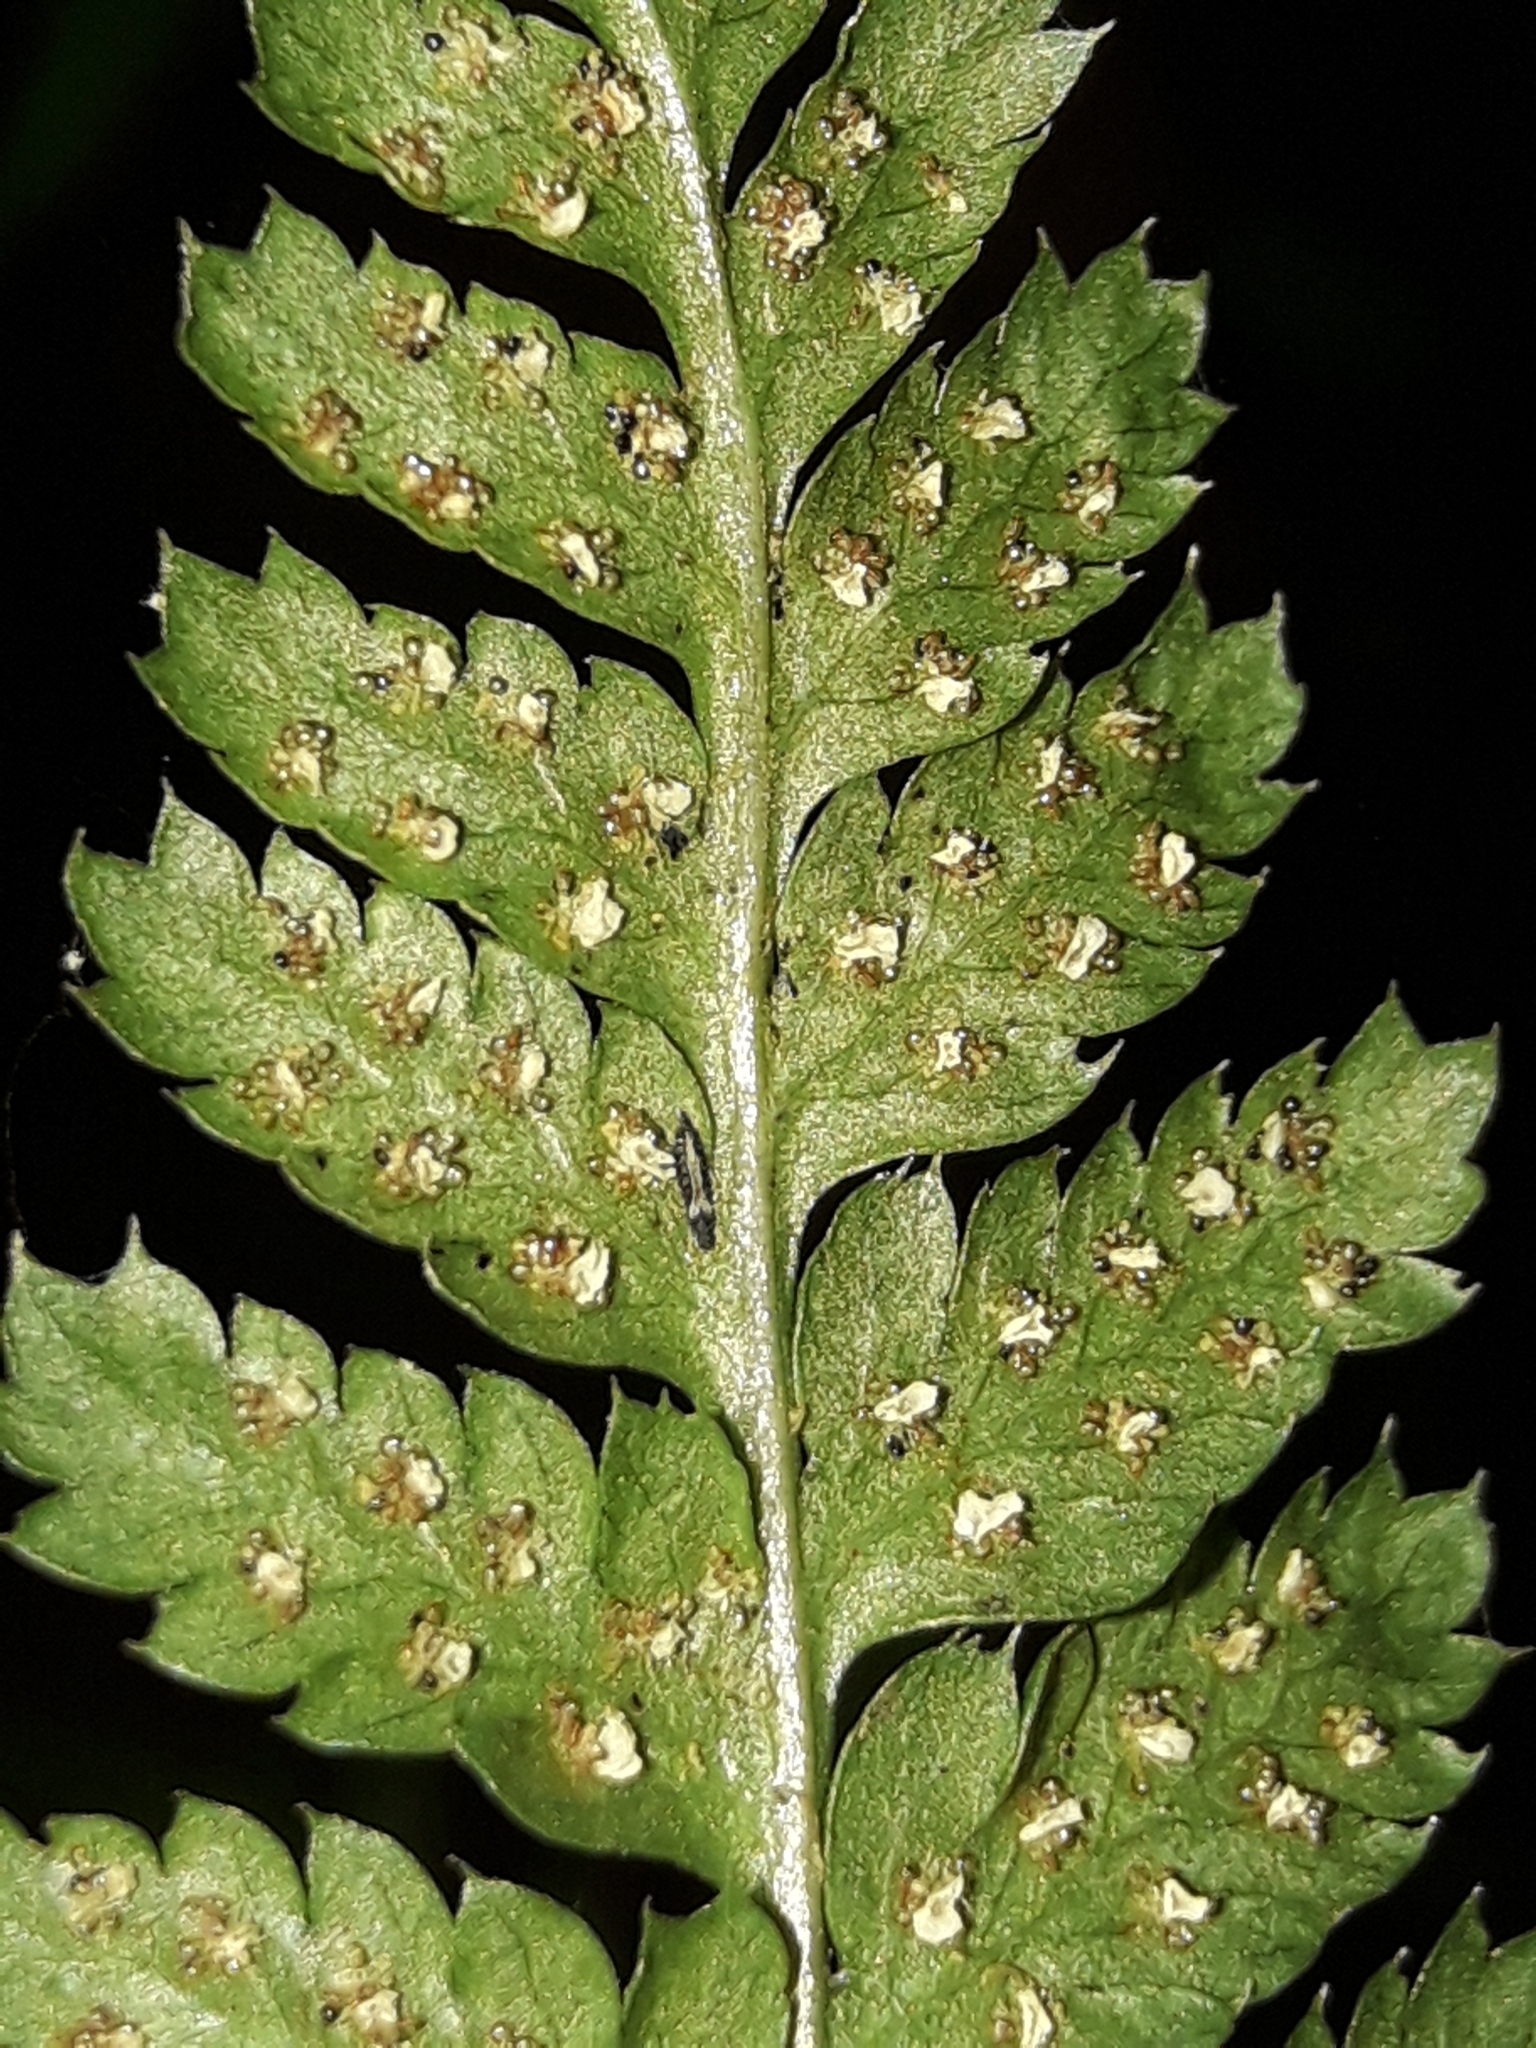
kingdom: Plantae
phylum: Tracheophyta
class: Polypodiopsida
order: Polypodiales
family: Dryopteridaceae
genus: Dryopteris
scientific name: Dryopteris dilatata
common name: Broad buckler-fern
